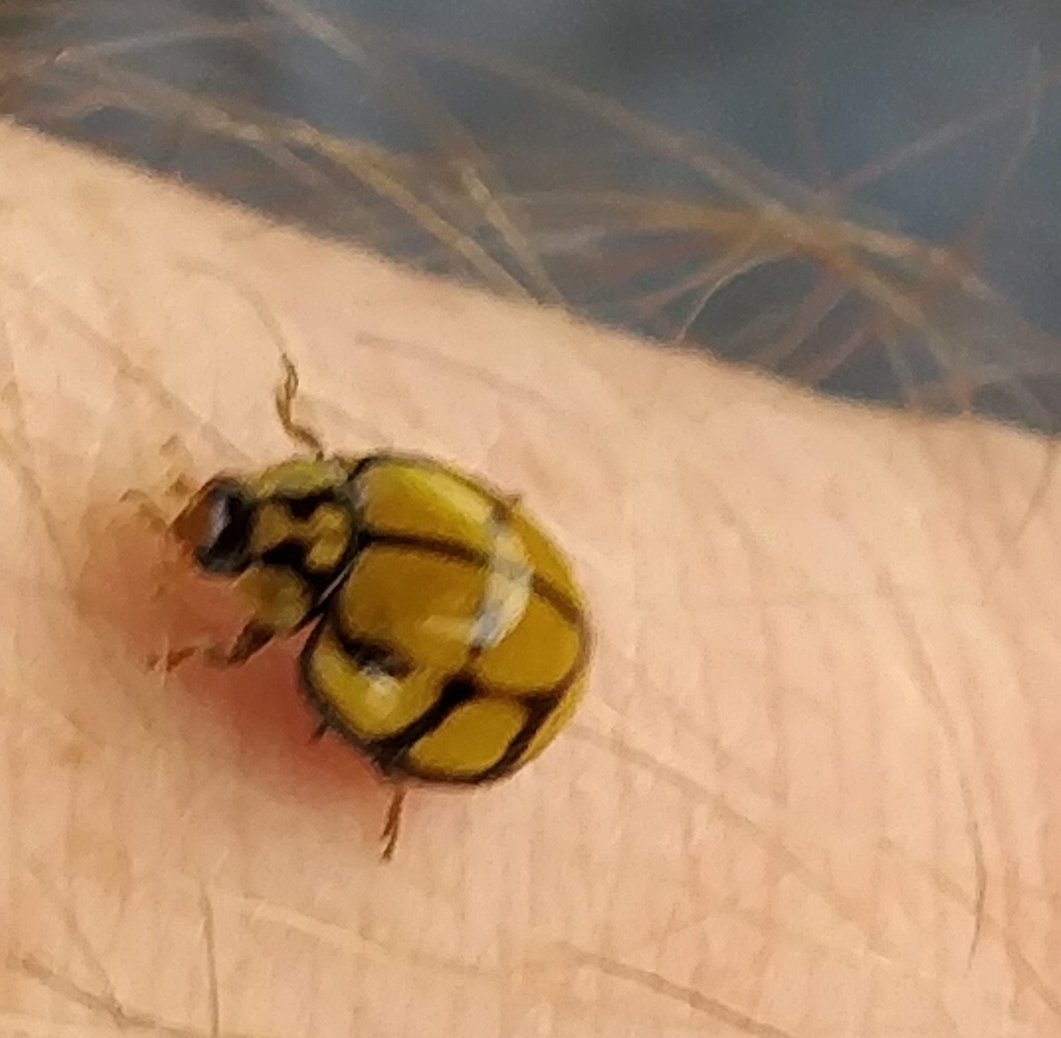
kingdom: Animalia
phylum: Arthropoda
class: Insecta
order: Coleoptera
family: Coccinellidae
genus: Harmonia
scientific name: Harmonia
